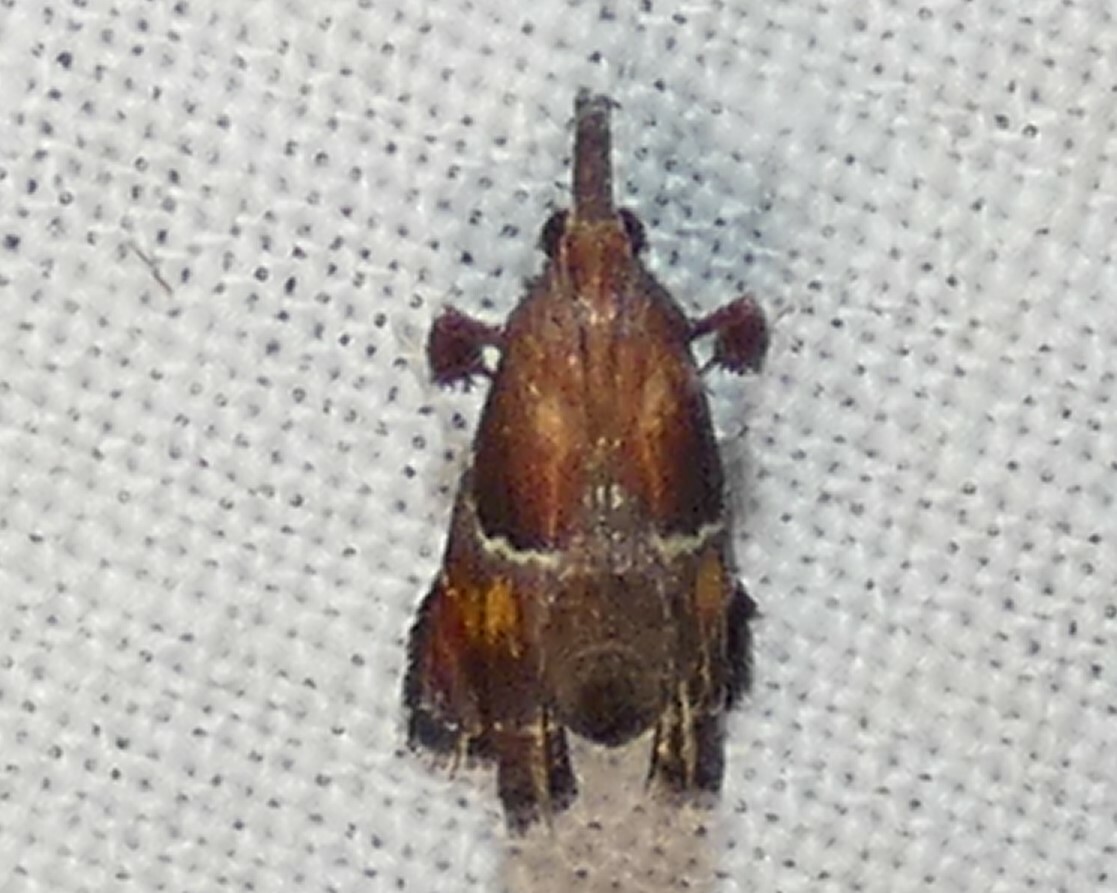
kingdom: Animalia
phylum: Arthropoda
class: Insecta
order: Lepidoptera
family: Pyralidae
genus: Penthesilea
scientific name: Penthesilea sacculalis
